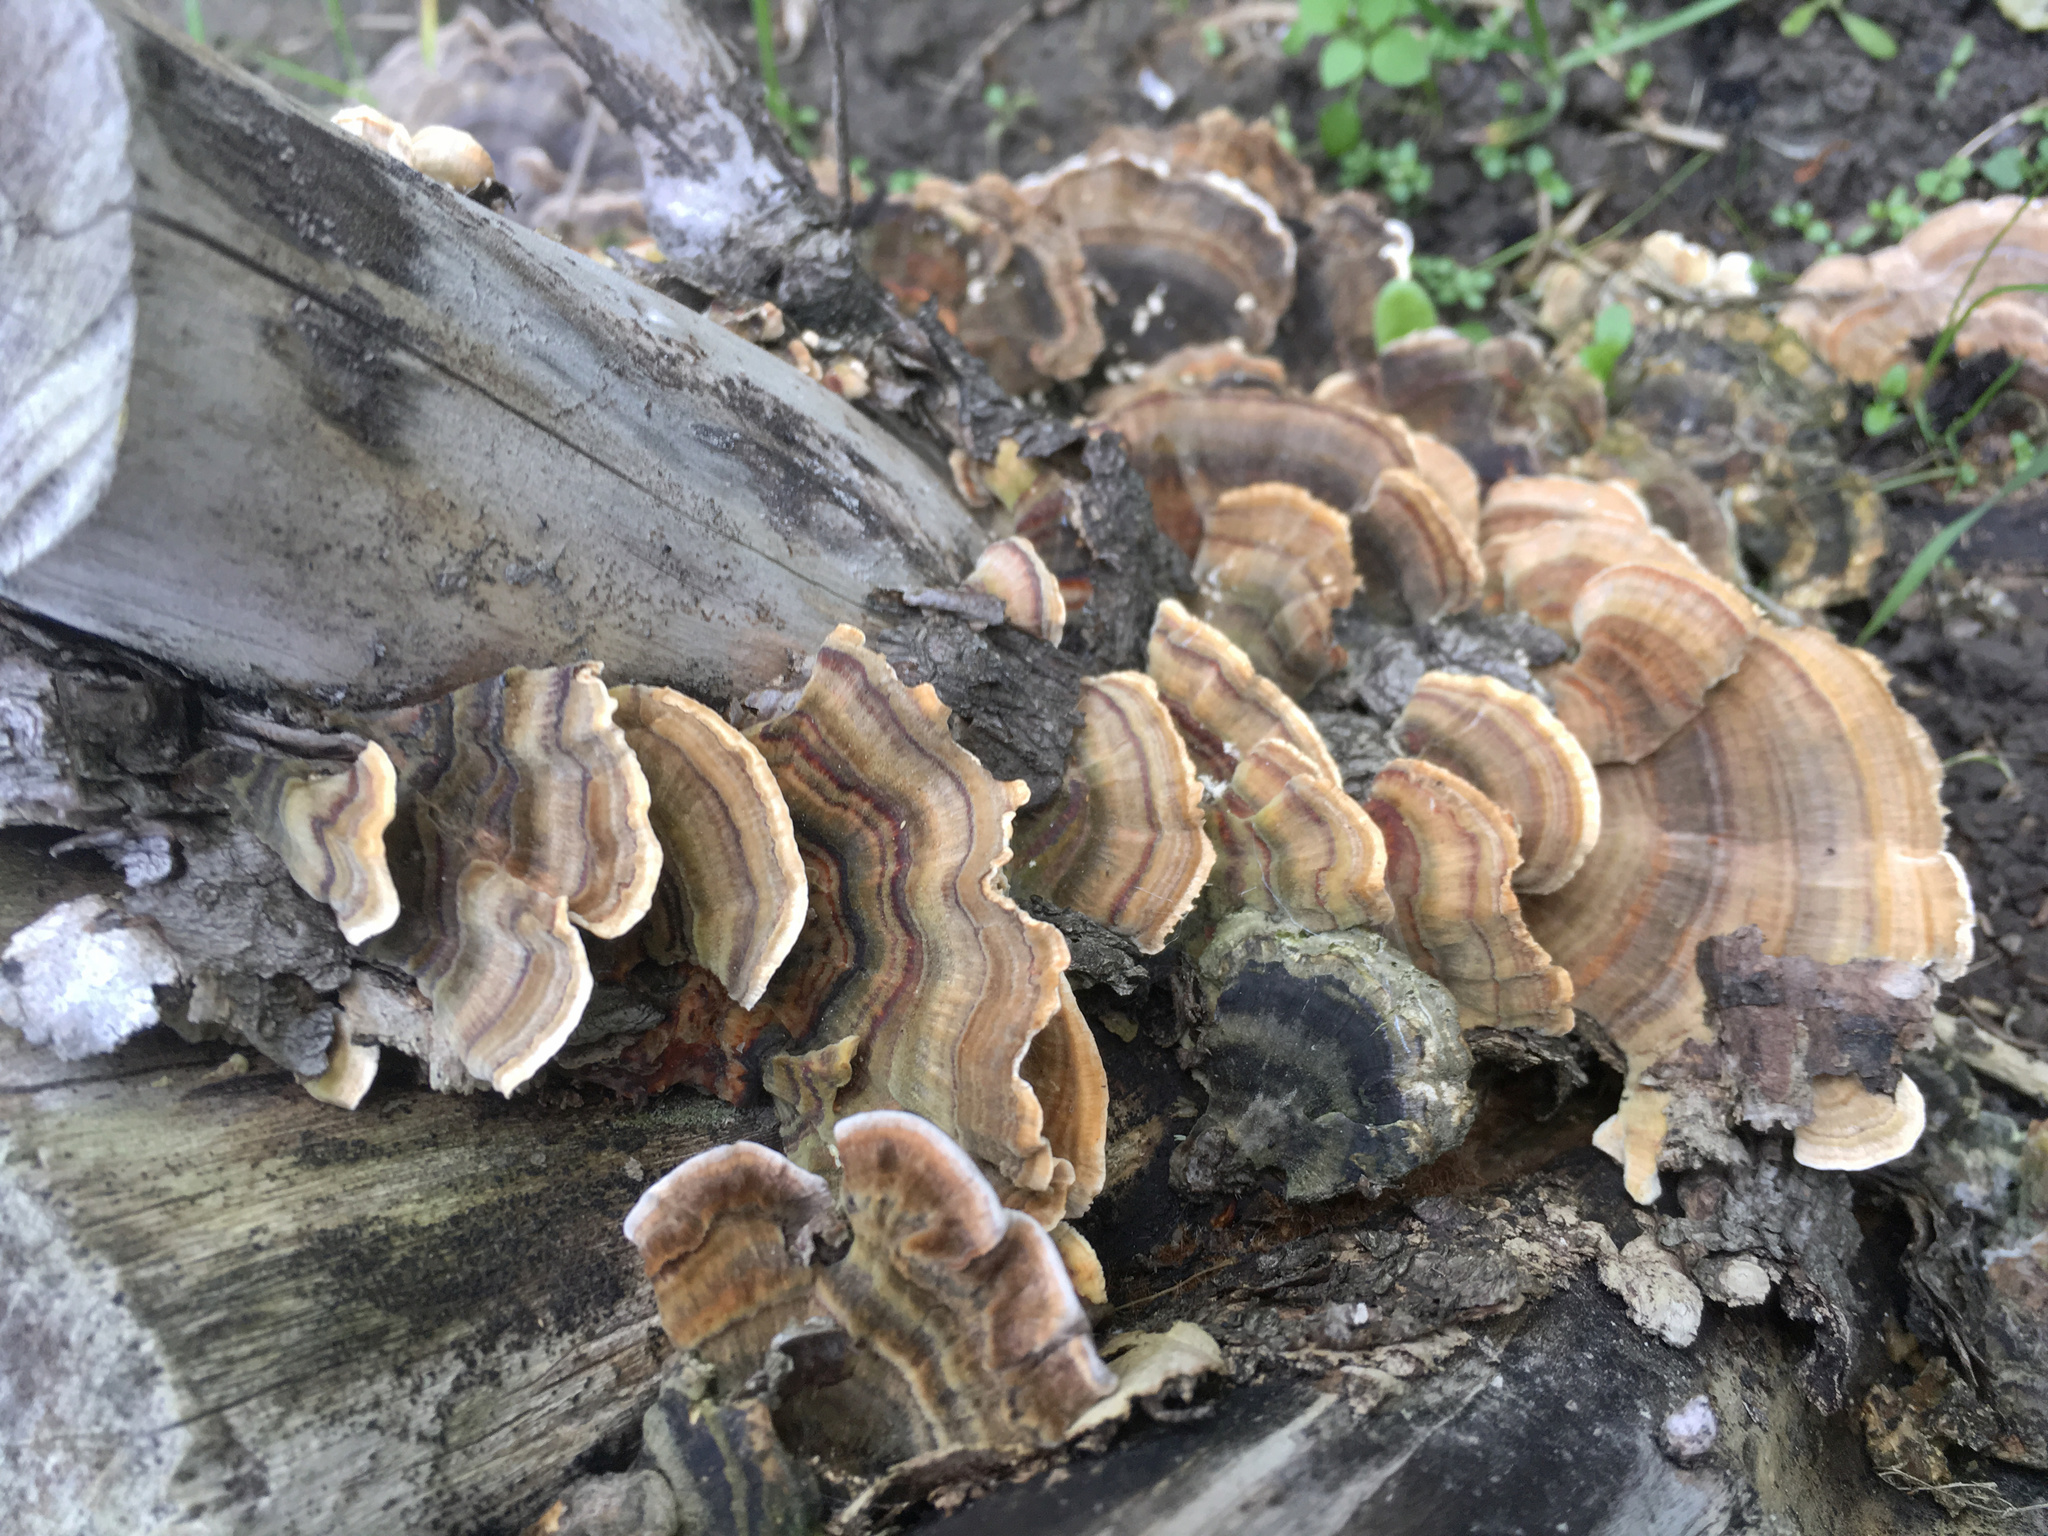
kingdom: Fungi
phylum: Basidiomycota
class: Agaricomycetes
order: Polyporales
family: Polyporaceae
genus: Trametes
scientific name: Trametes versicolor
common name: Turkeytail
